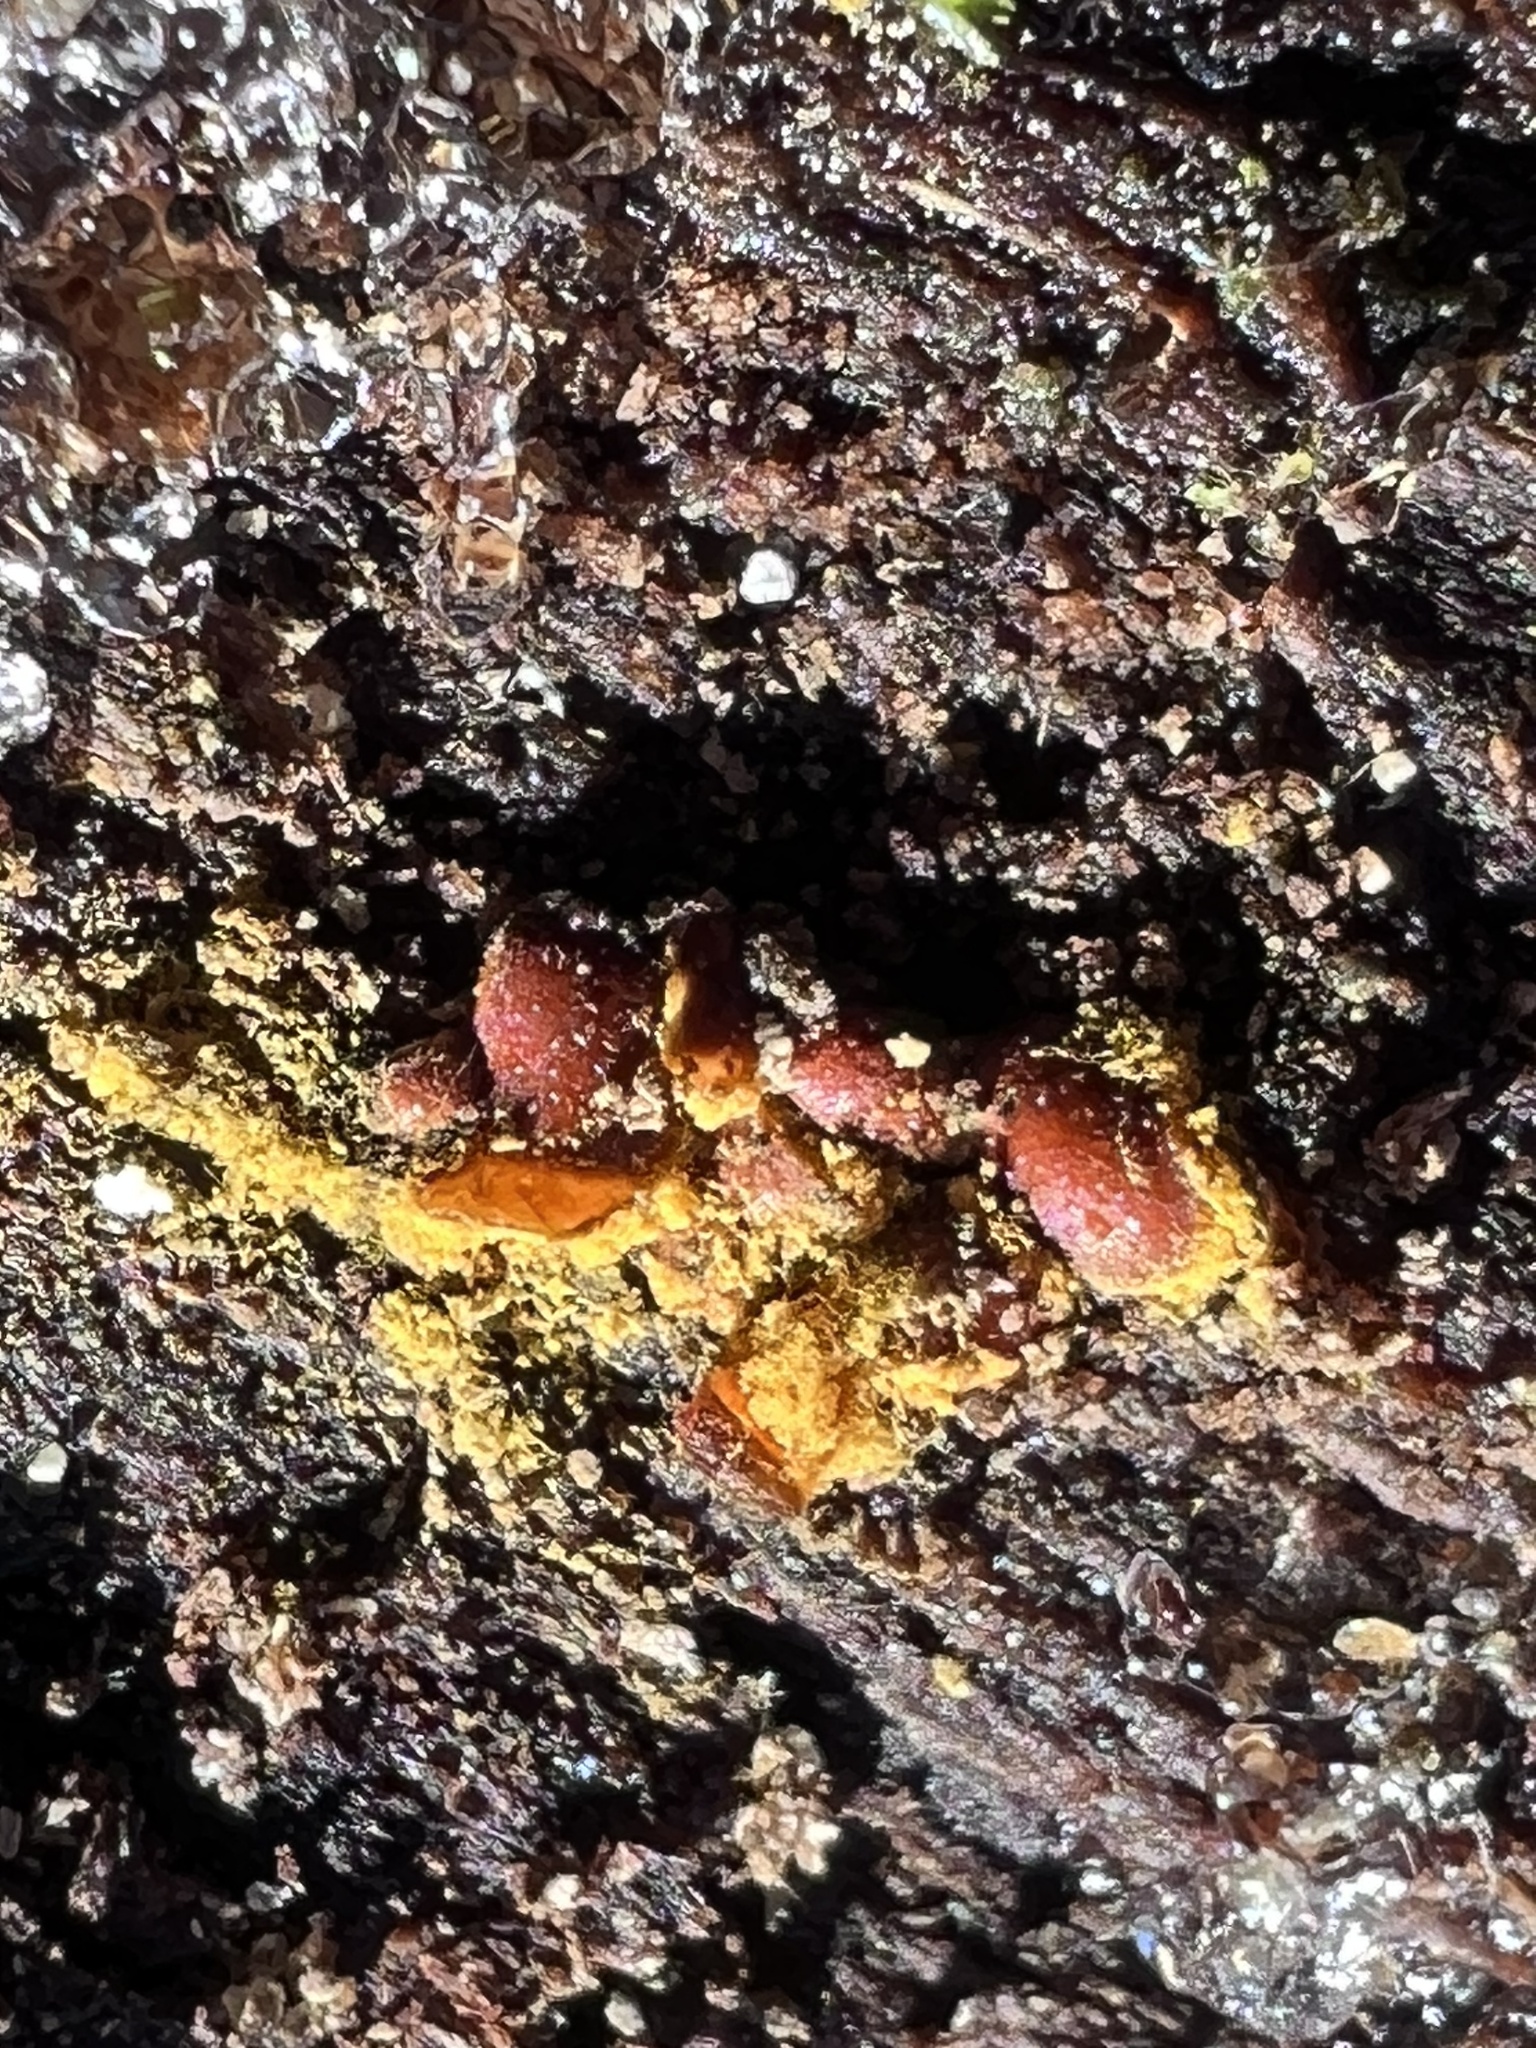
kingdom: Protozoa
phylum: Mycetozoa
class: Myxomycetes
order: Trichiales
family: Trichiaceae
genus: Perichaena
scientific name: Perichaena depressa
